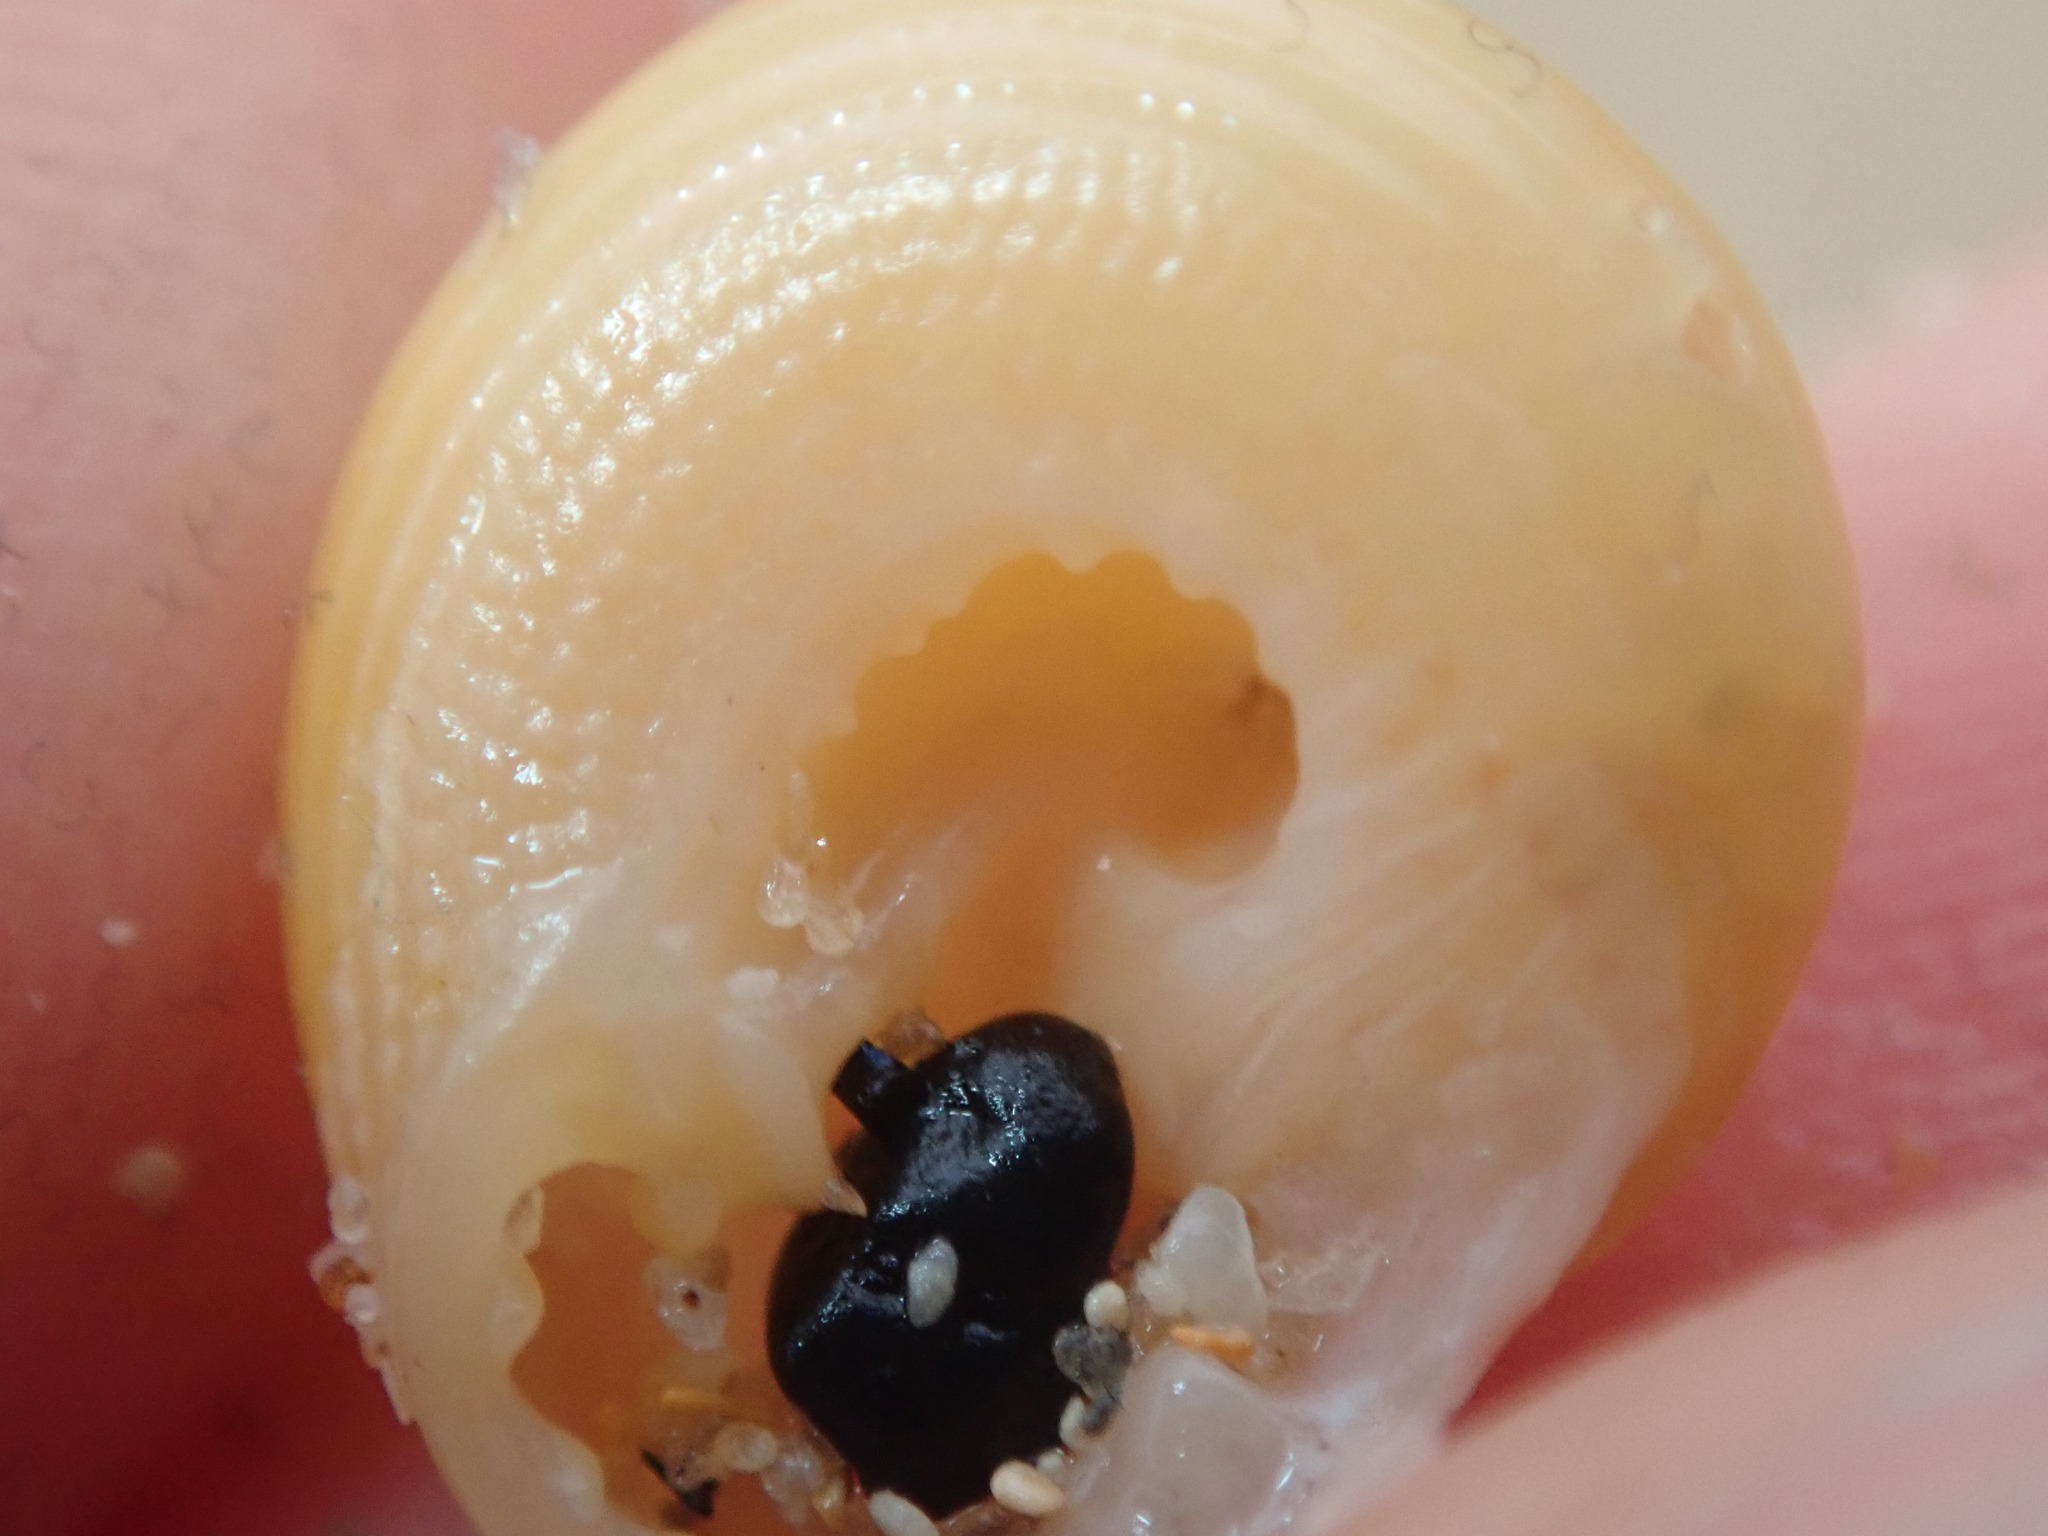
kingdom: Animalia
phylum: Mollusca
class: Gastropoda
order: Trochida
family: Trochidae
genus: Clanculus
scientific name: Clanculus floridus
